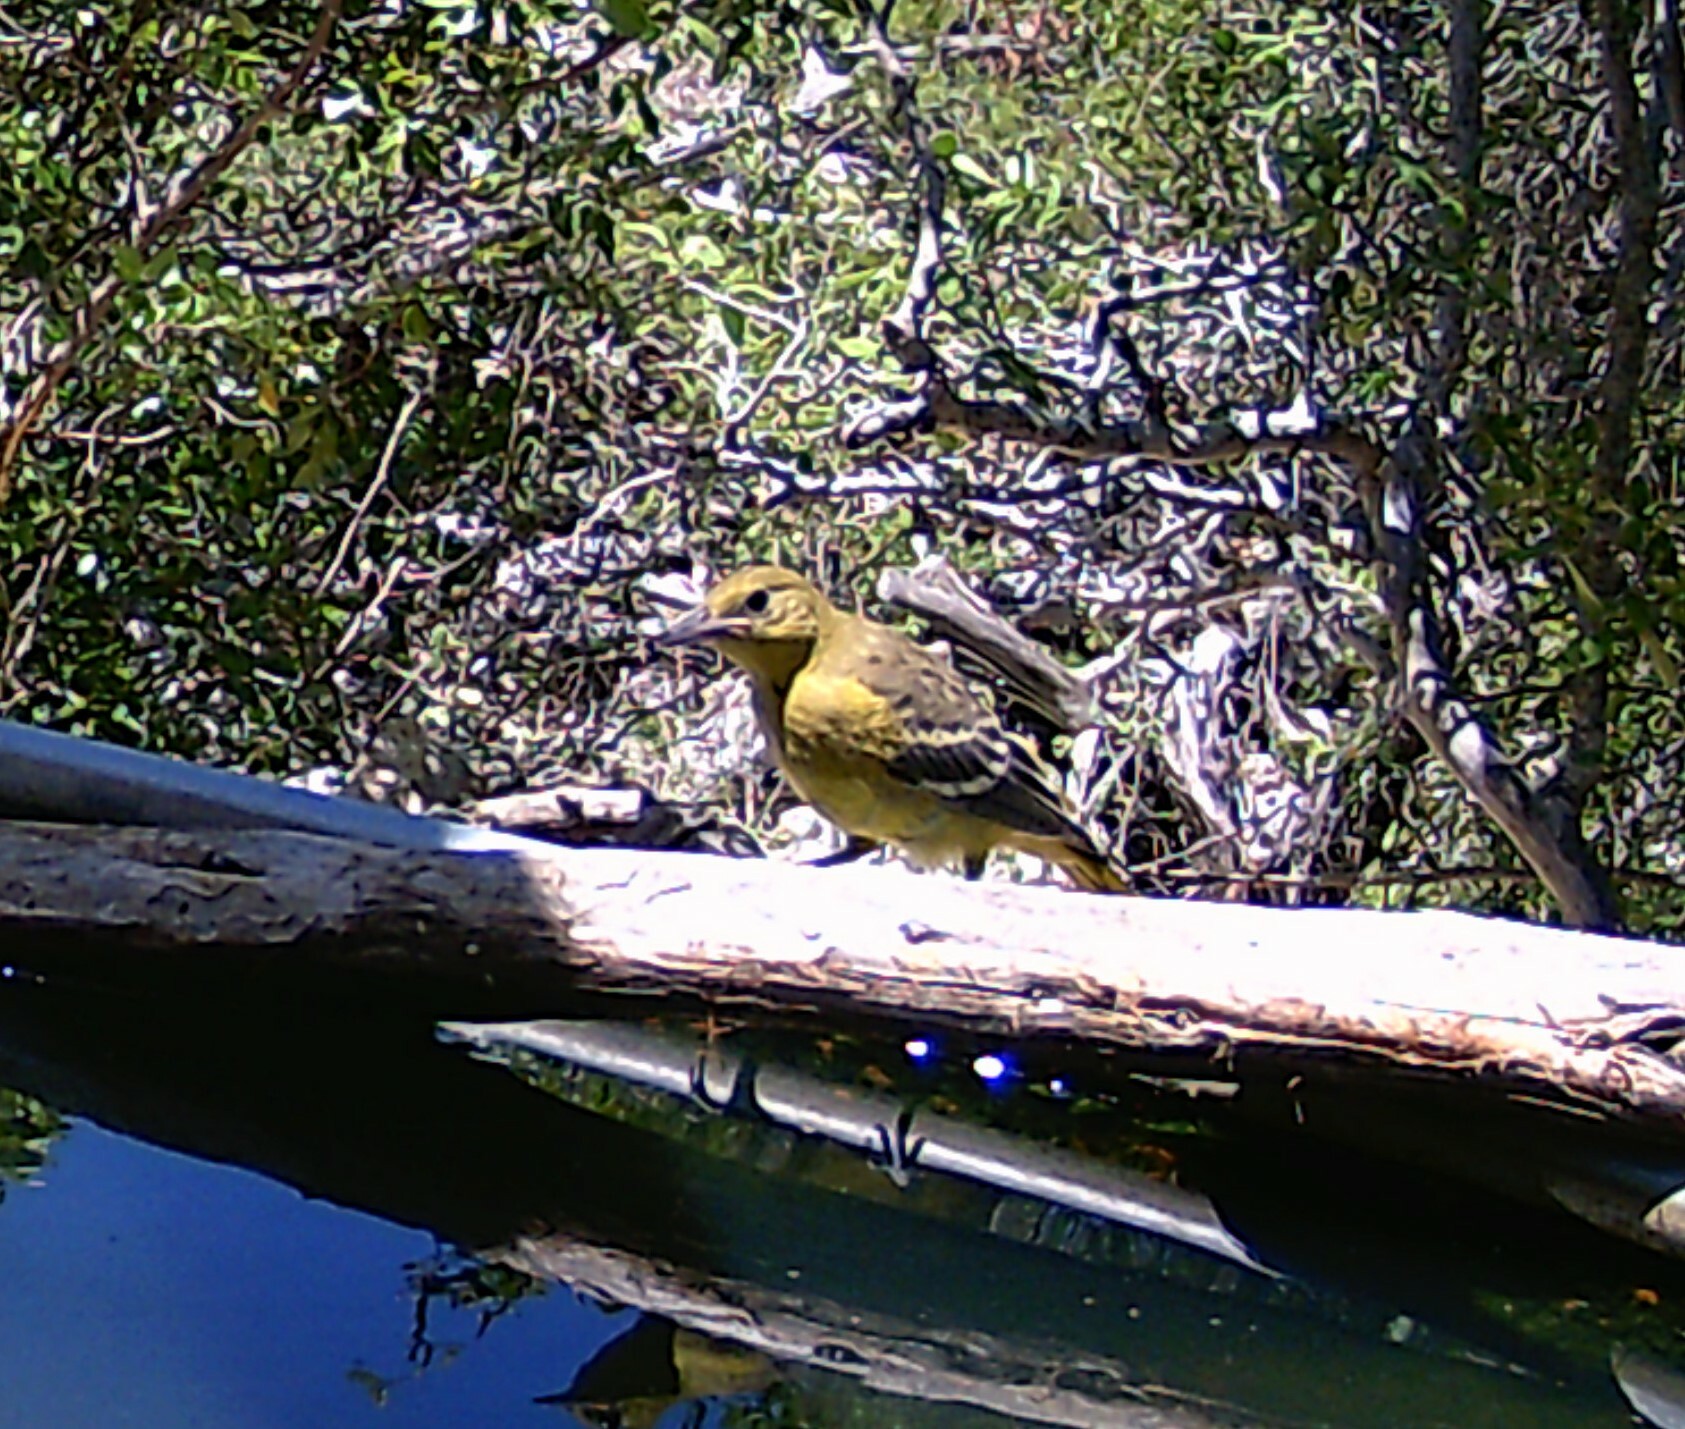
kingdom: Animalia
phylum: Chordata
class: Aves
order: Passeriformes
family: Icteridae
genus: Icterus
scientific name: Icterus parisorum
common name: Scott's oriole
